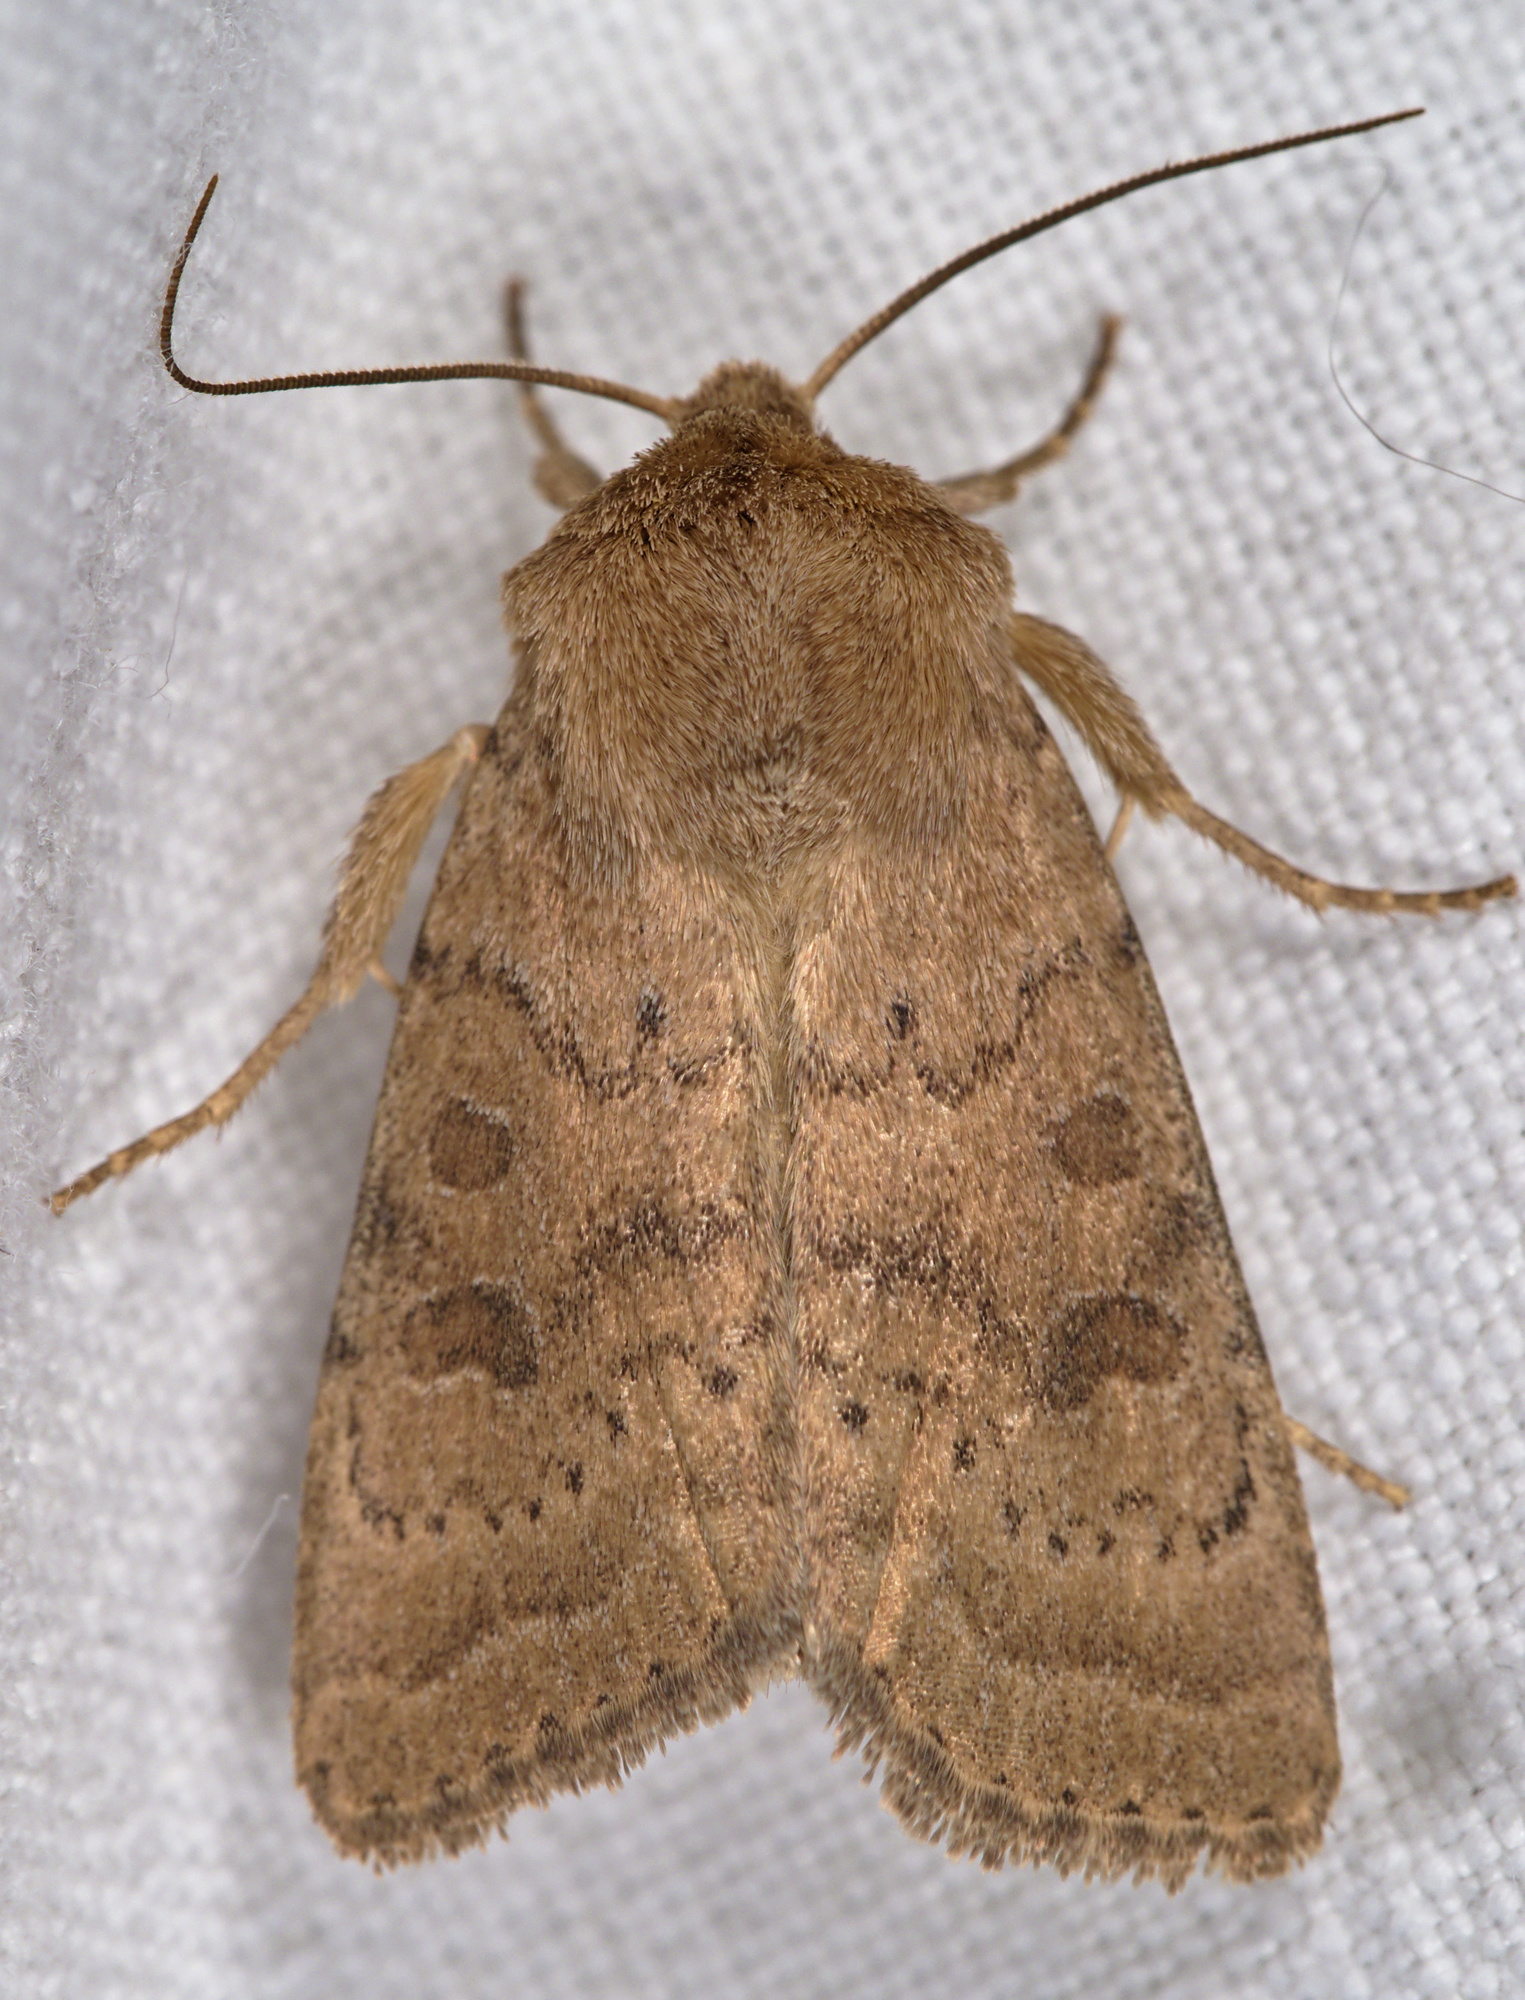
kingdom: Animalia
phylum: Arthropoda
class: Insecta
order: Lepidoptera
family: Noctuidae
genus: Hoplodrina
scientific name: Hoplodrina octogenaria
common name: Uncertain
